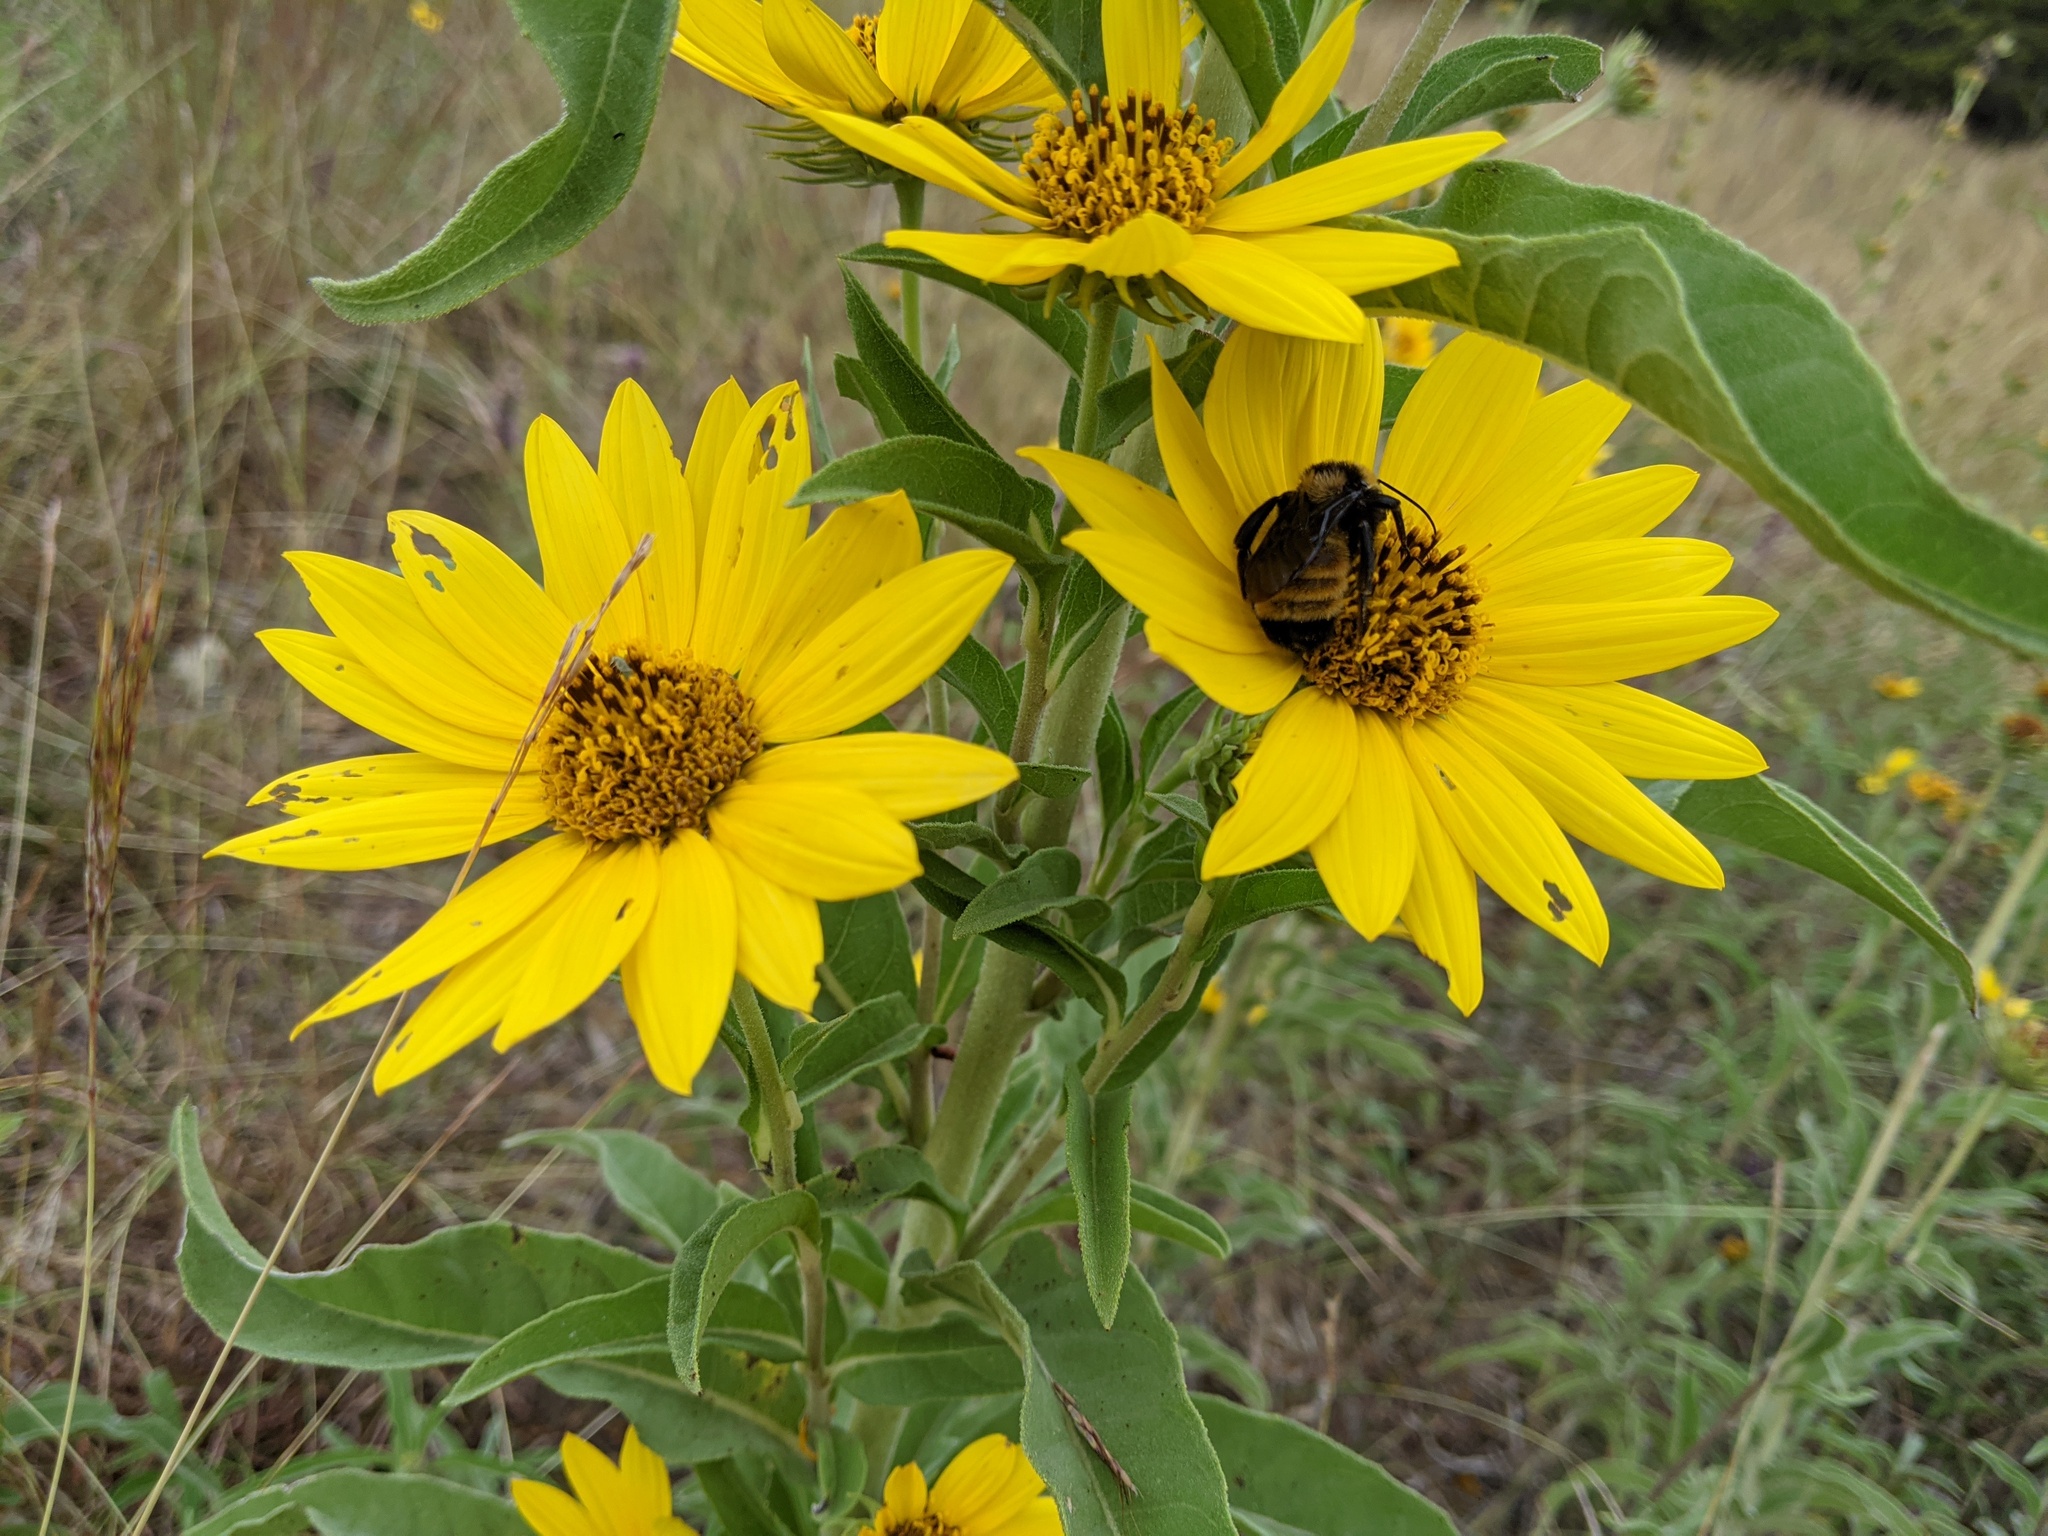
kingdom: Plantae
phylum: Tracheophyta
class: Magnoliopsida
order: Asterales
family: Asteraceae
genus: Helianthus
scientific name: Helianthus maximiliani
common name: Maximilian's sunflower
